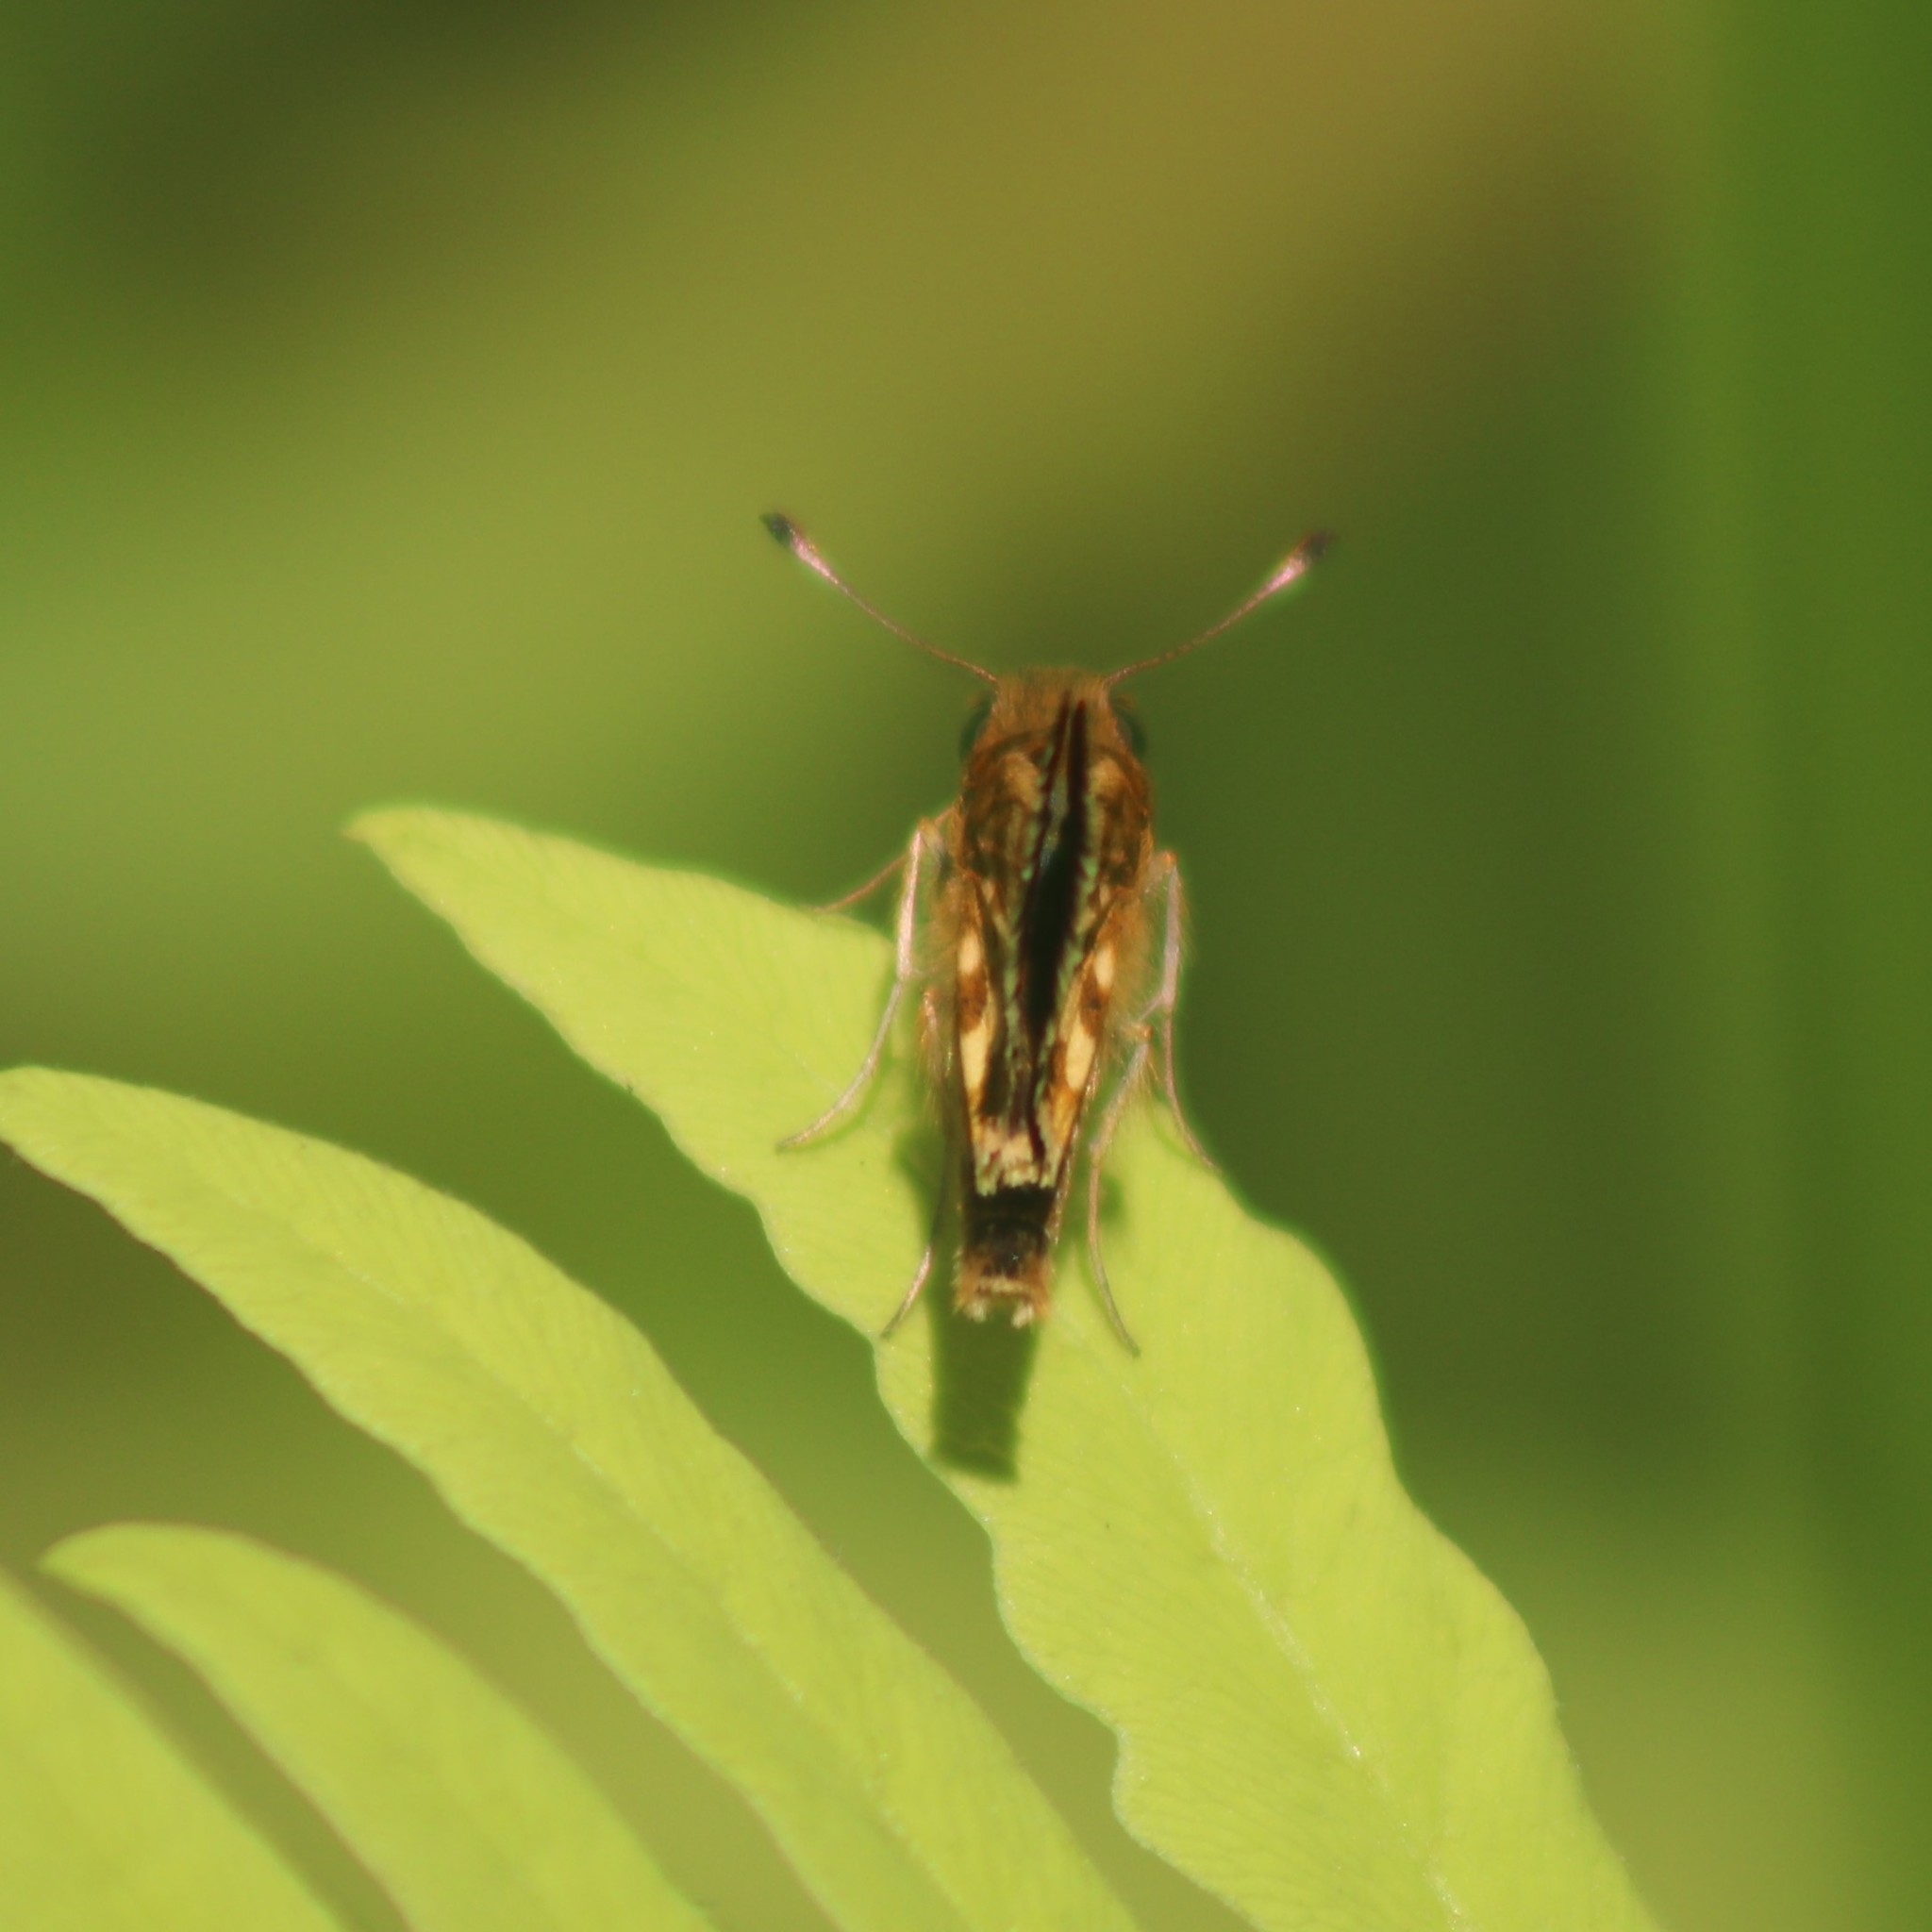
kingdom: Animalia
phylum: Arthropoda
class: Insecta
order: Lepidoptera
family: Hesperiidae
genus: Polites
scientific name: Polites coras
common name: Peck's skipper
